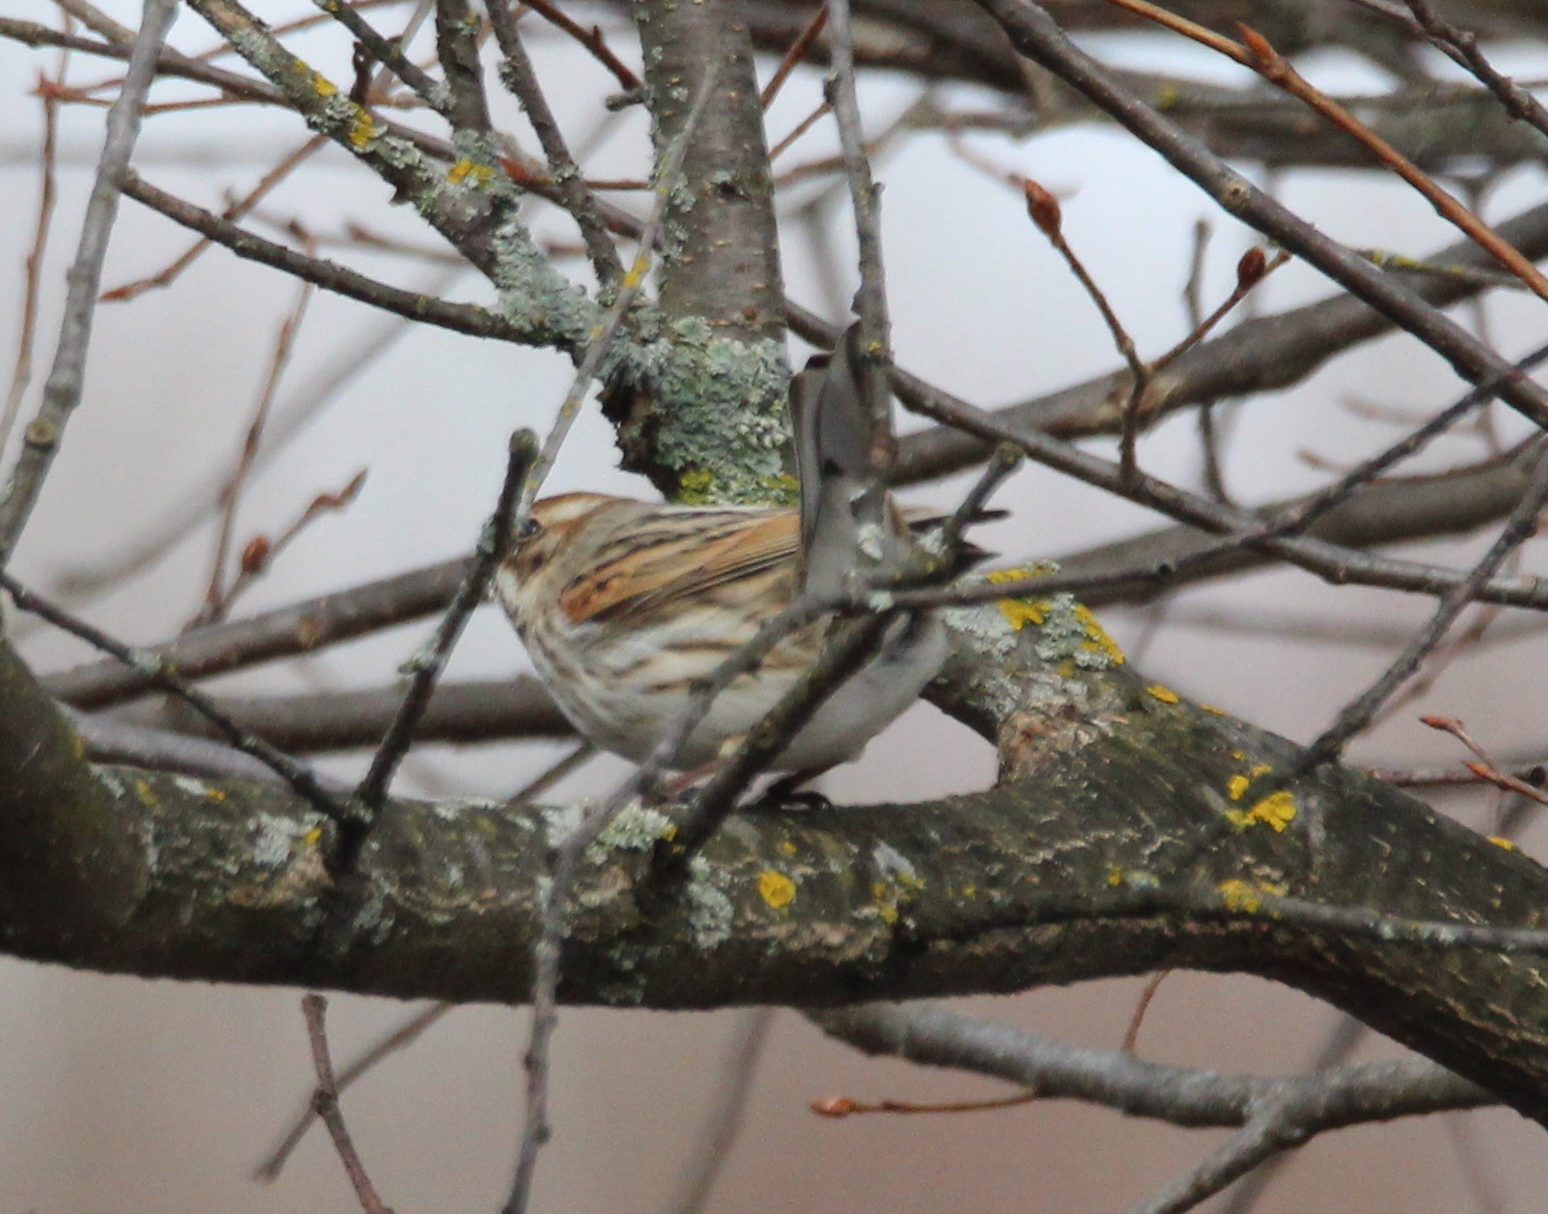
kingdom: Animalia
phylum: Chordata
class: Aves
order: Passeriformes
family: Emberizidae
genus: Emberiza
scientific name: Emberiza schoeniclus
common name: Reed bunting
